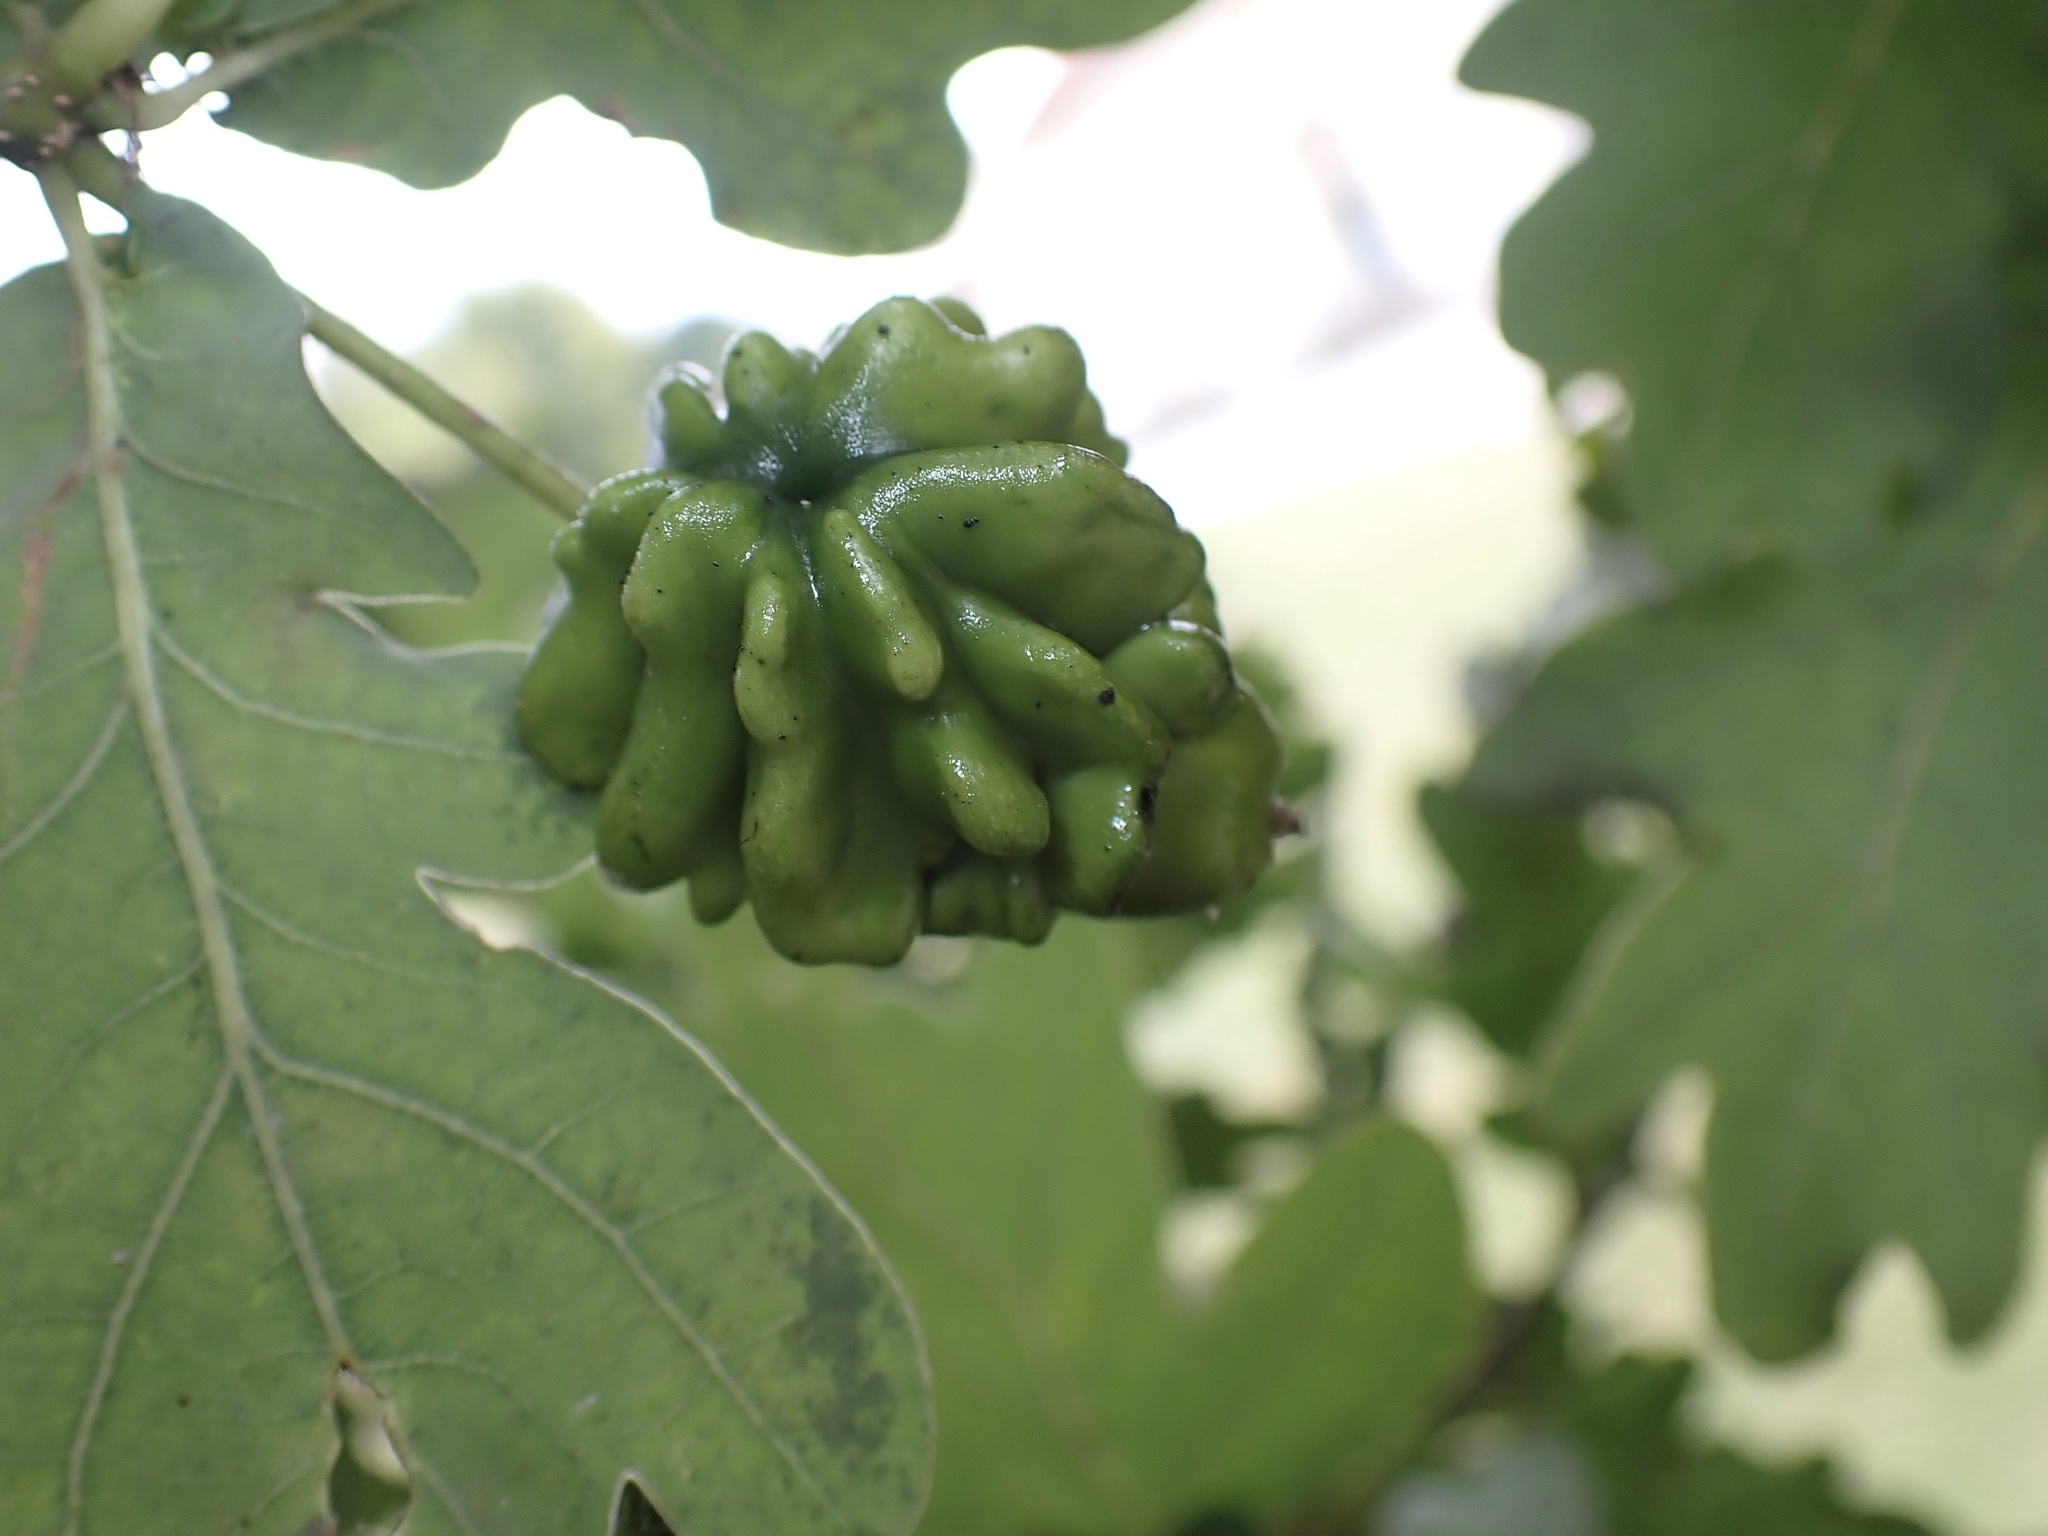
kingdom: Animalia
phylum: Arthropoda
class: Insecta
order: Hymenoptera
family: Cynipidae
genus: Andricus
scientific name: Andricus quercuscalicis
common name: Knopper gall
